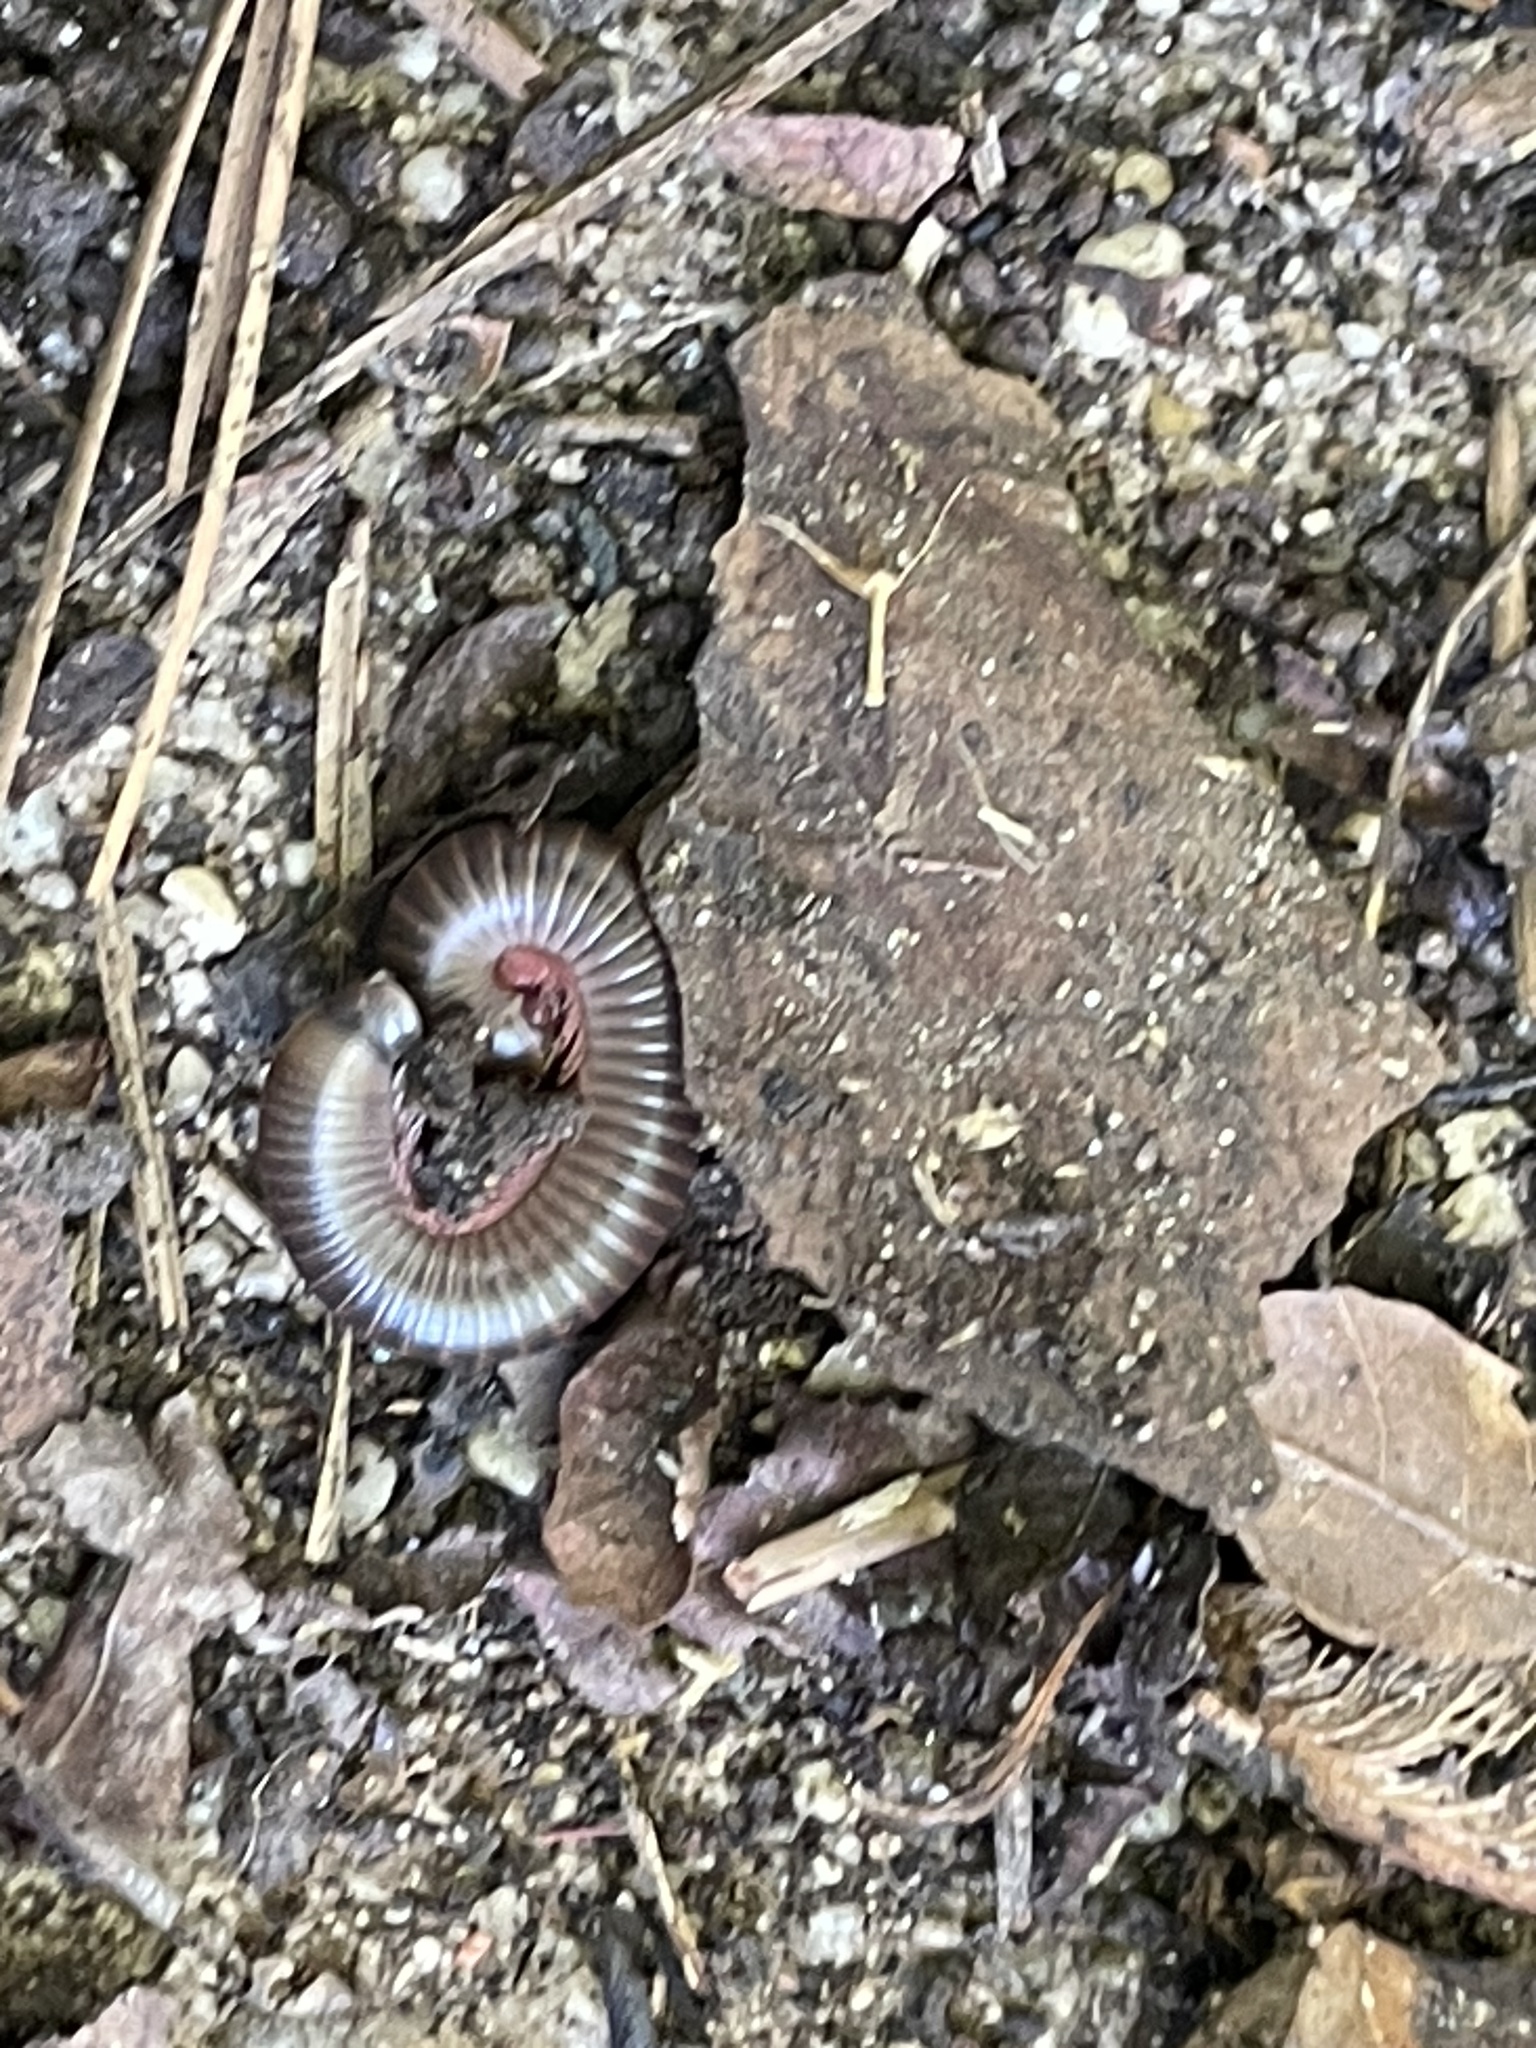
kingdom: Animalia
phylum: Arthropoda
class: Diplopoda
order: Spirobolida
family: Spirobolidae
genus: Narceus
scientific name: Narceus americanus
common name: American giant millipede
